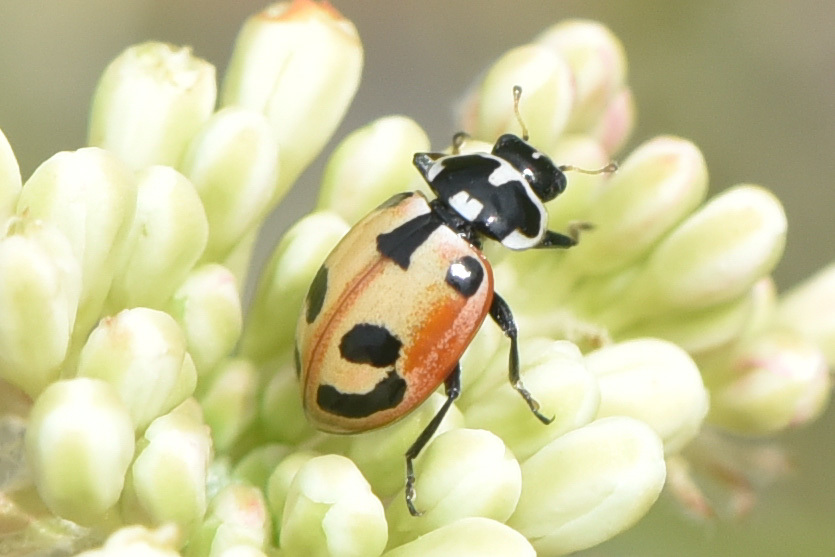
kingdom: Animalia
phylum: Arthropoda
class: Insecta
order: Coleoptera
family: Coccinellidae
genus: Hippodamia
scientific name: Hippodamia parenthesis
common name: Parenthesis lady beetle
